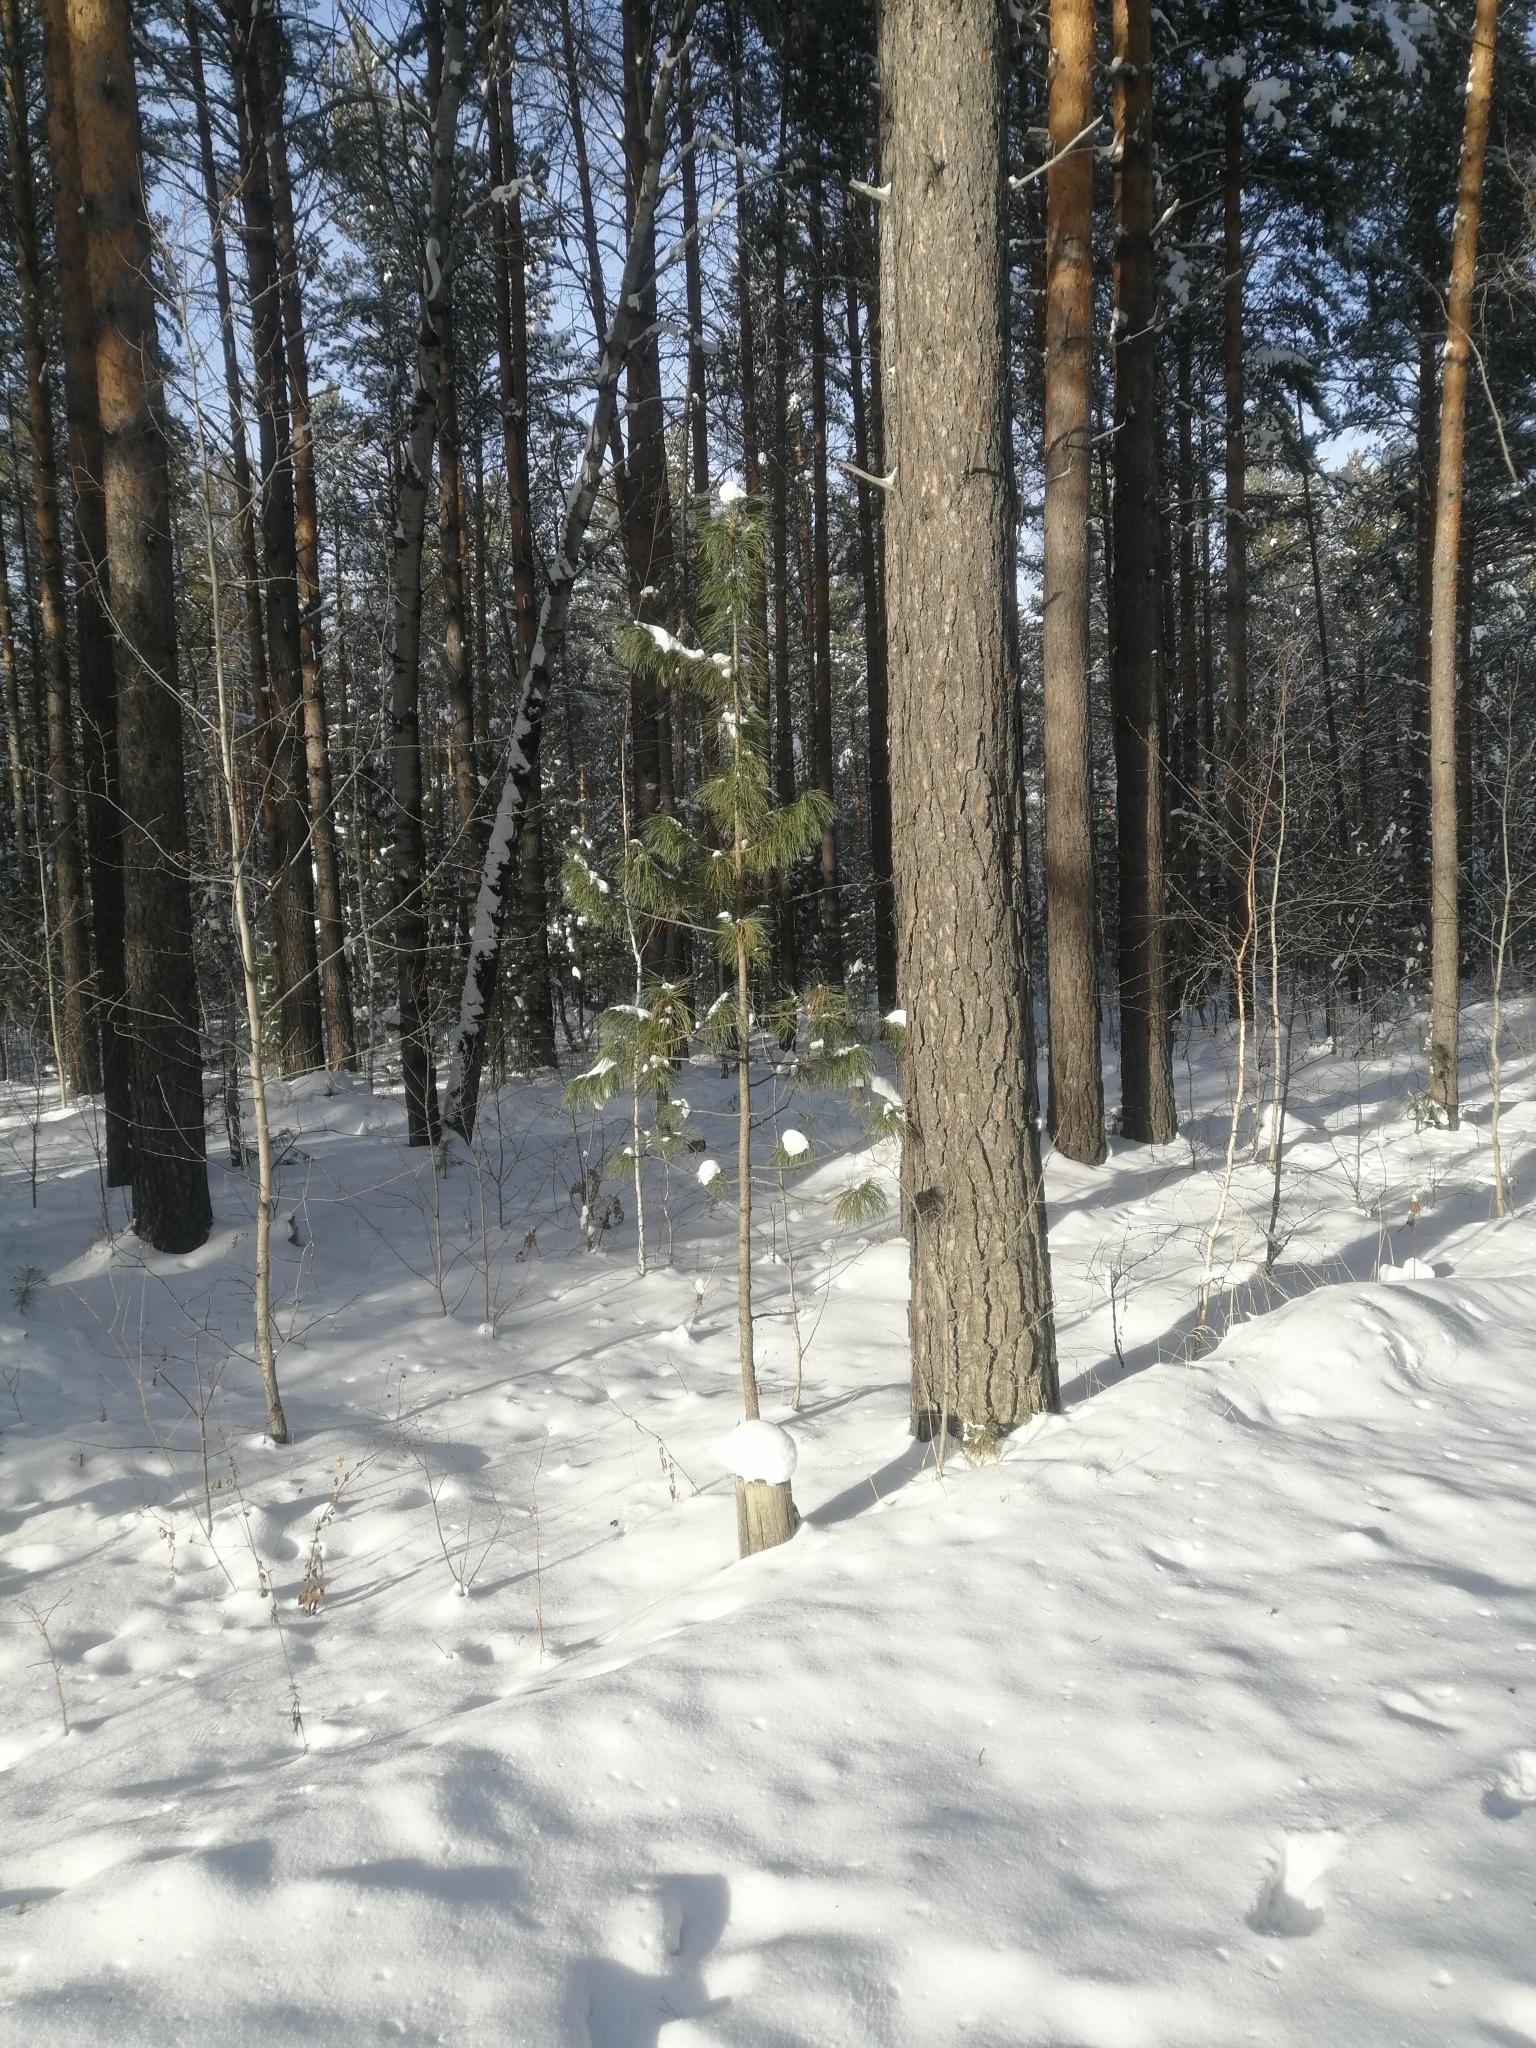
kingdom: Plantae
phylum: Tracheophyta
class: Pinopsida
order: Pinales
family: Pinaceae
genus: Pinus
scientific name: Pinus sibirica
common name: Siberian pine
